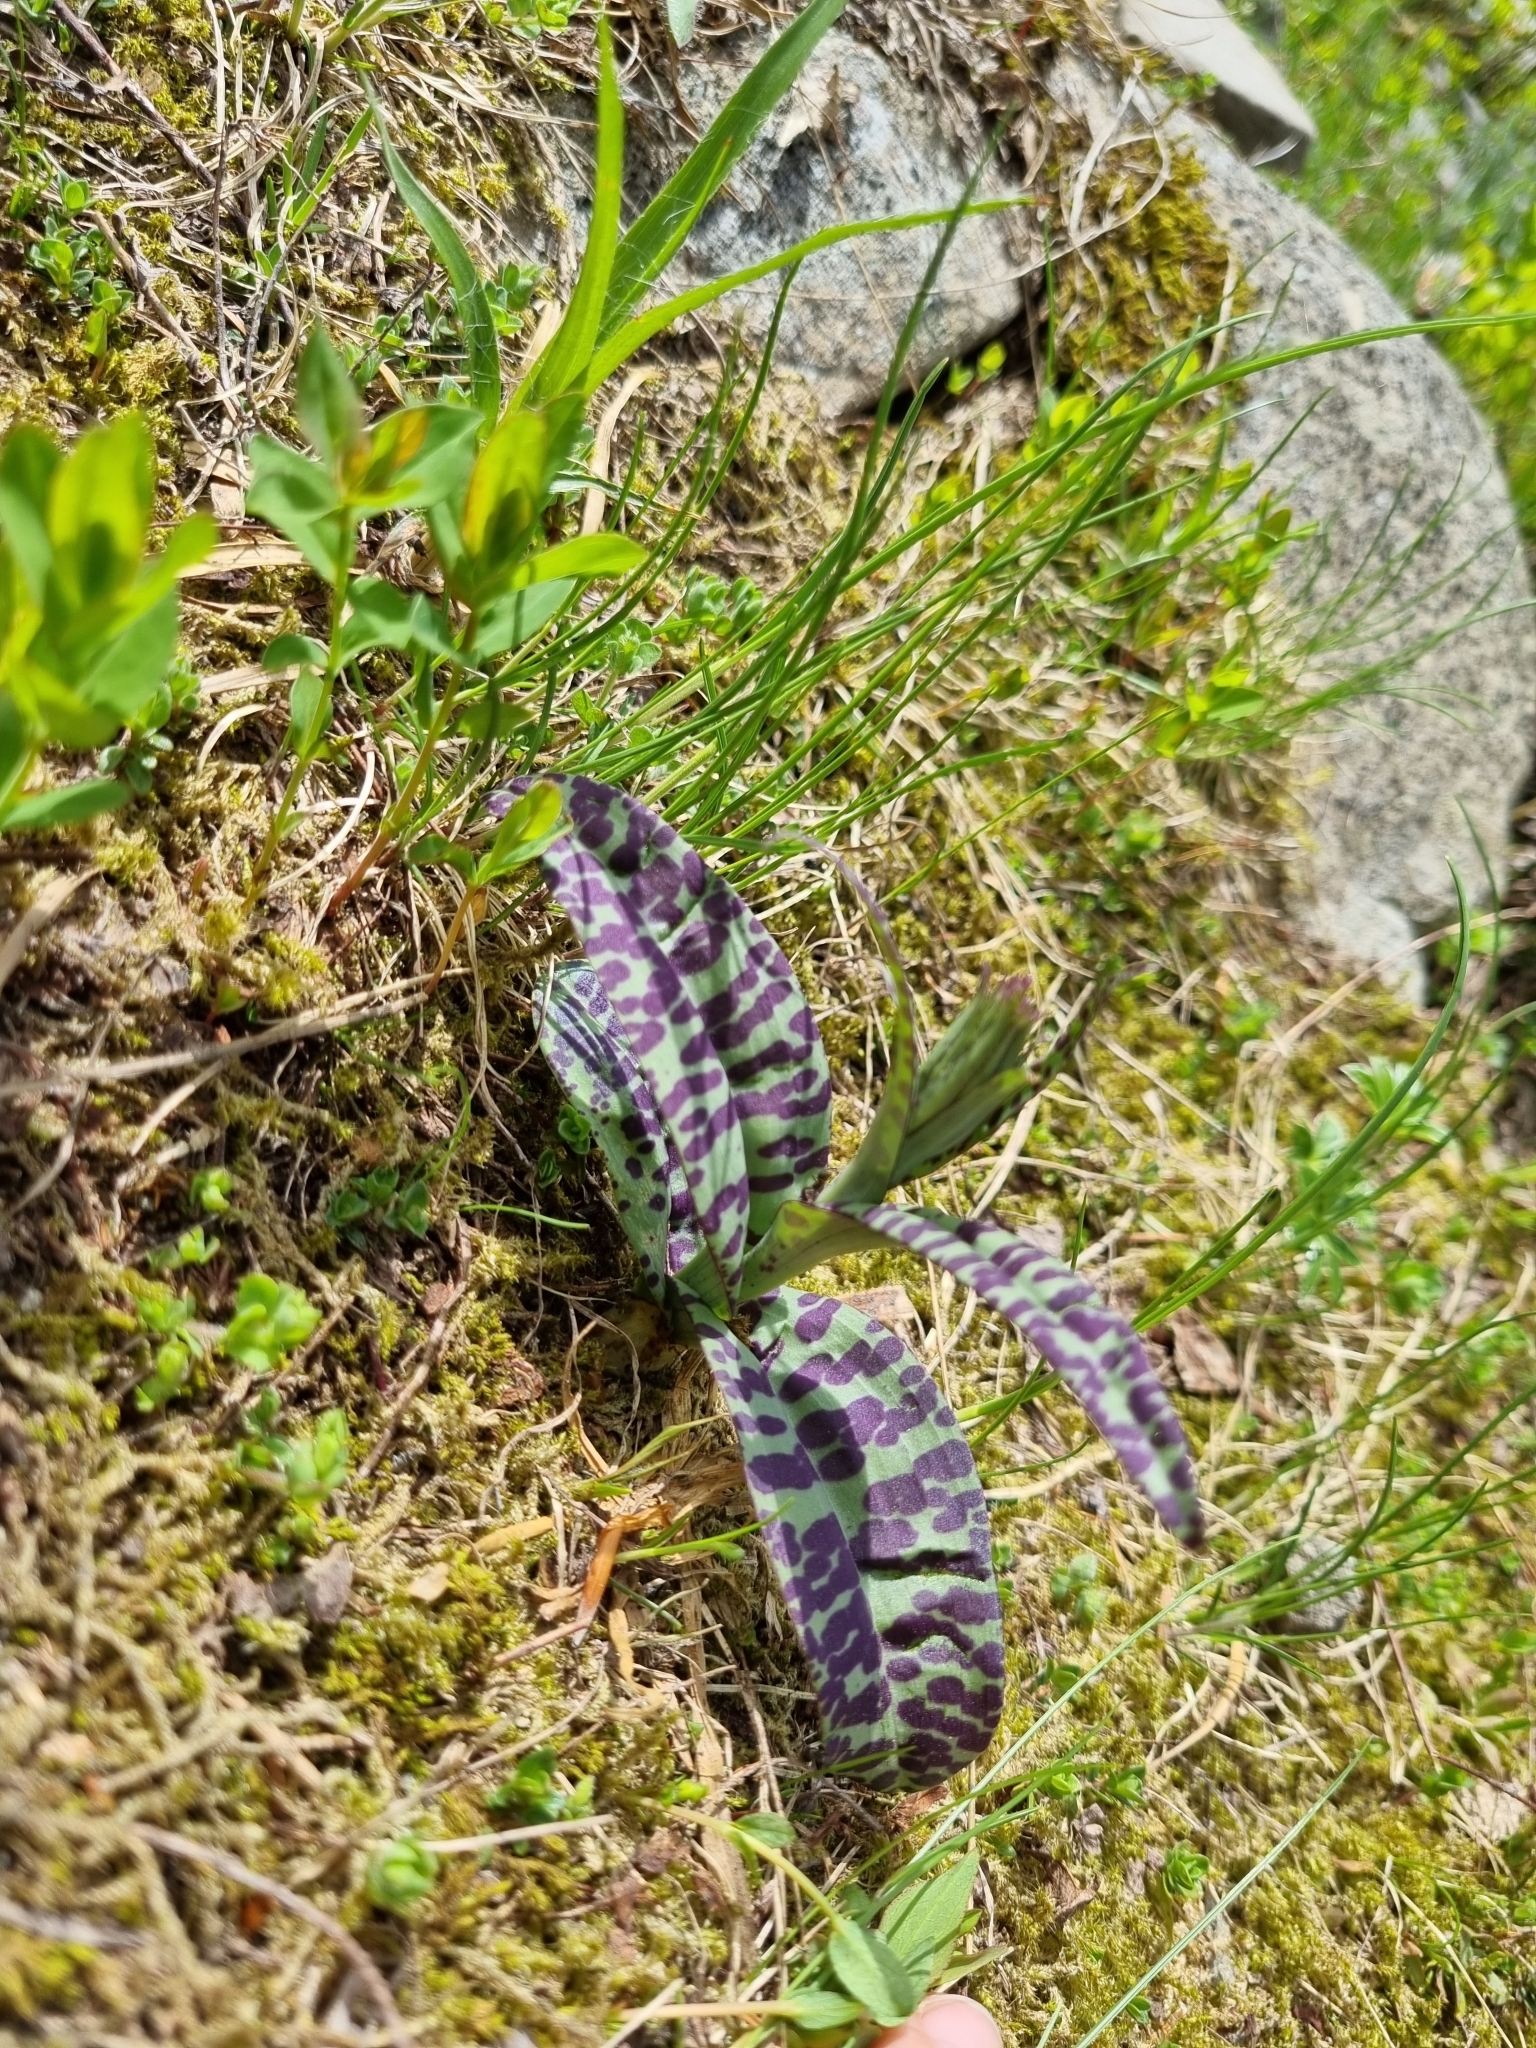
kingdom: Plantae
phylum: Tracheophyta
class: Liliopsida
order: Asparagales
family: Orchidaceae
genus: Dactylorhiza
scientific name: Dactylorhiza maculata
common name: Heath spotted-orchid
